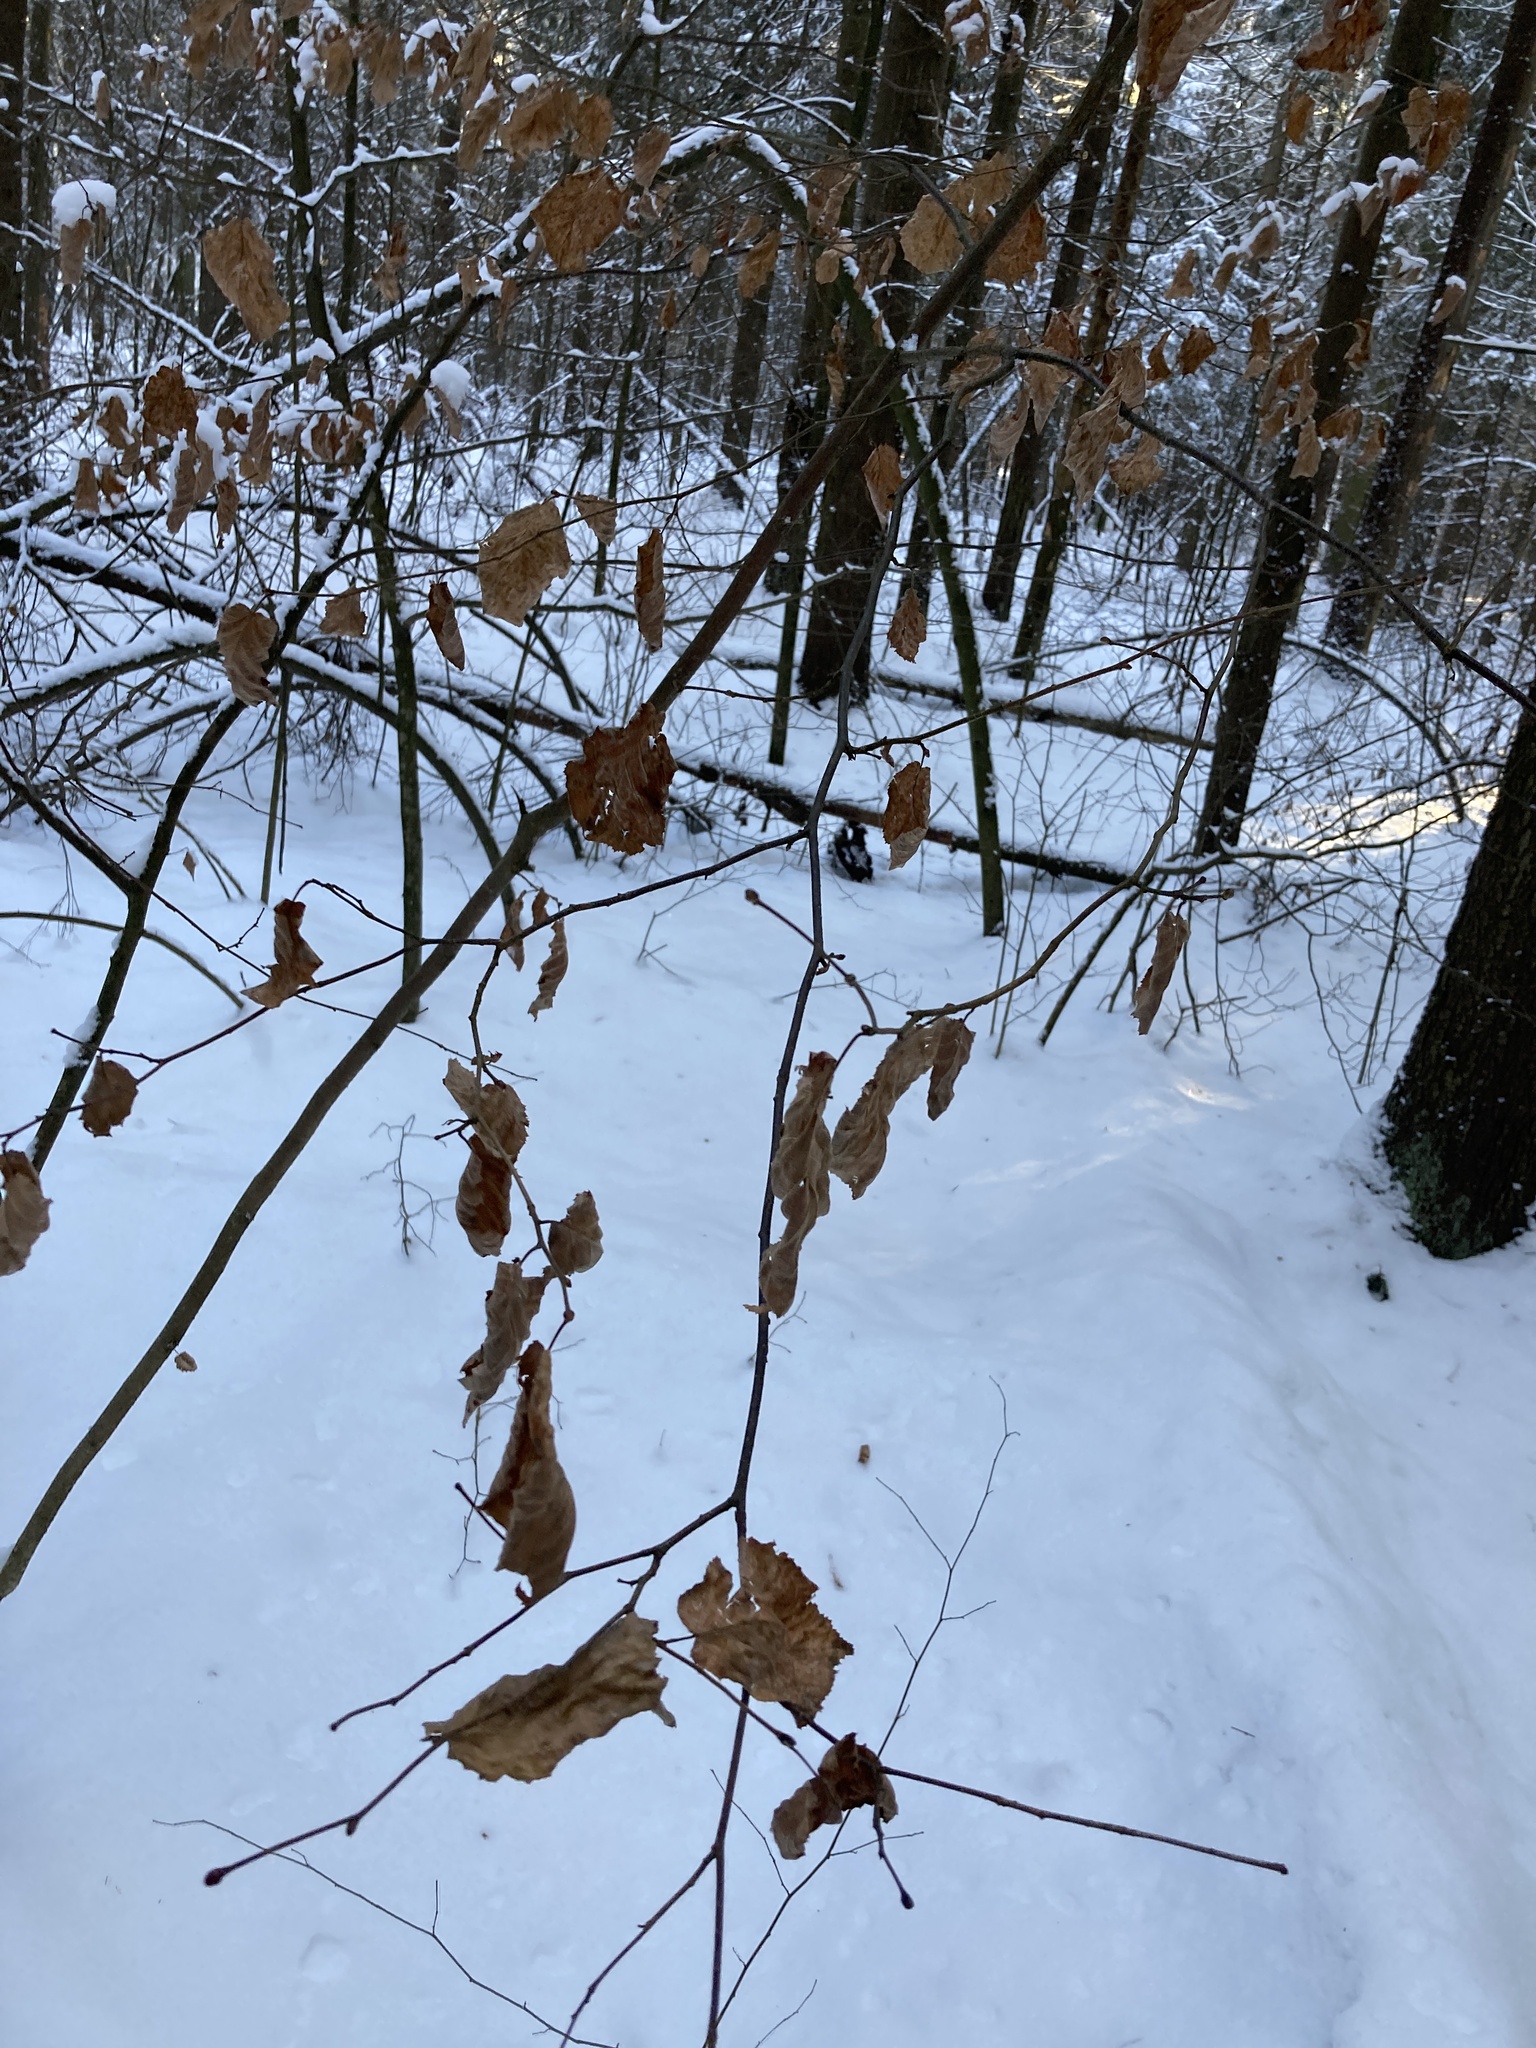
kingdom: Plantae
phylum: Tracheophyta
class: Magnoliopsida
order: Fagales
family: Betulaceae
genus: Corylus
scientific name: Corylus avellana
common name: European hazel
